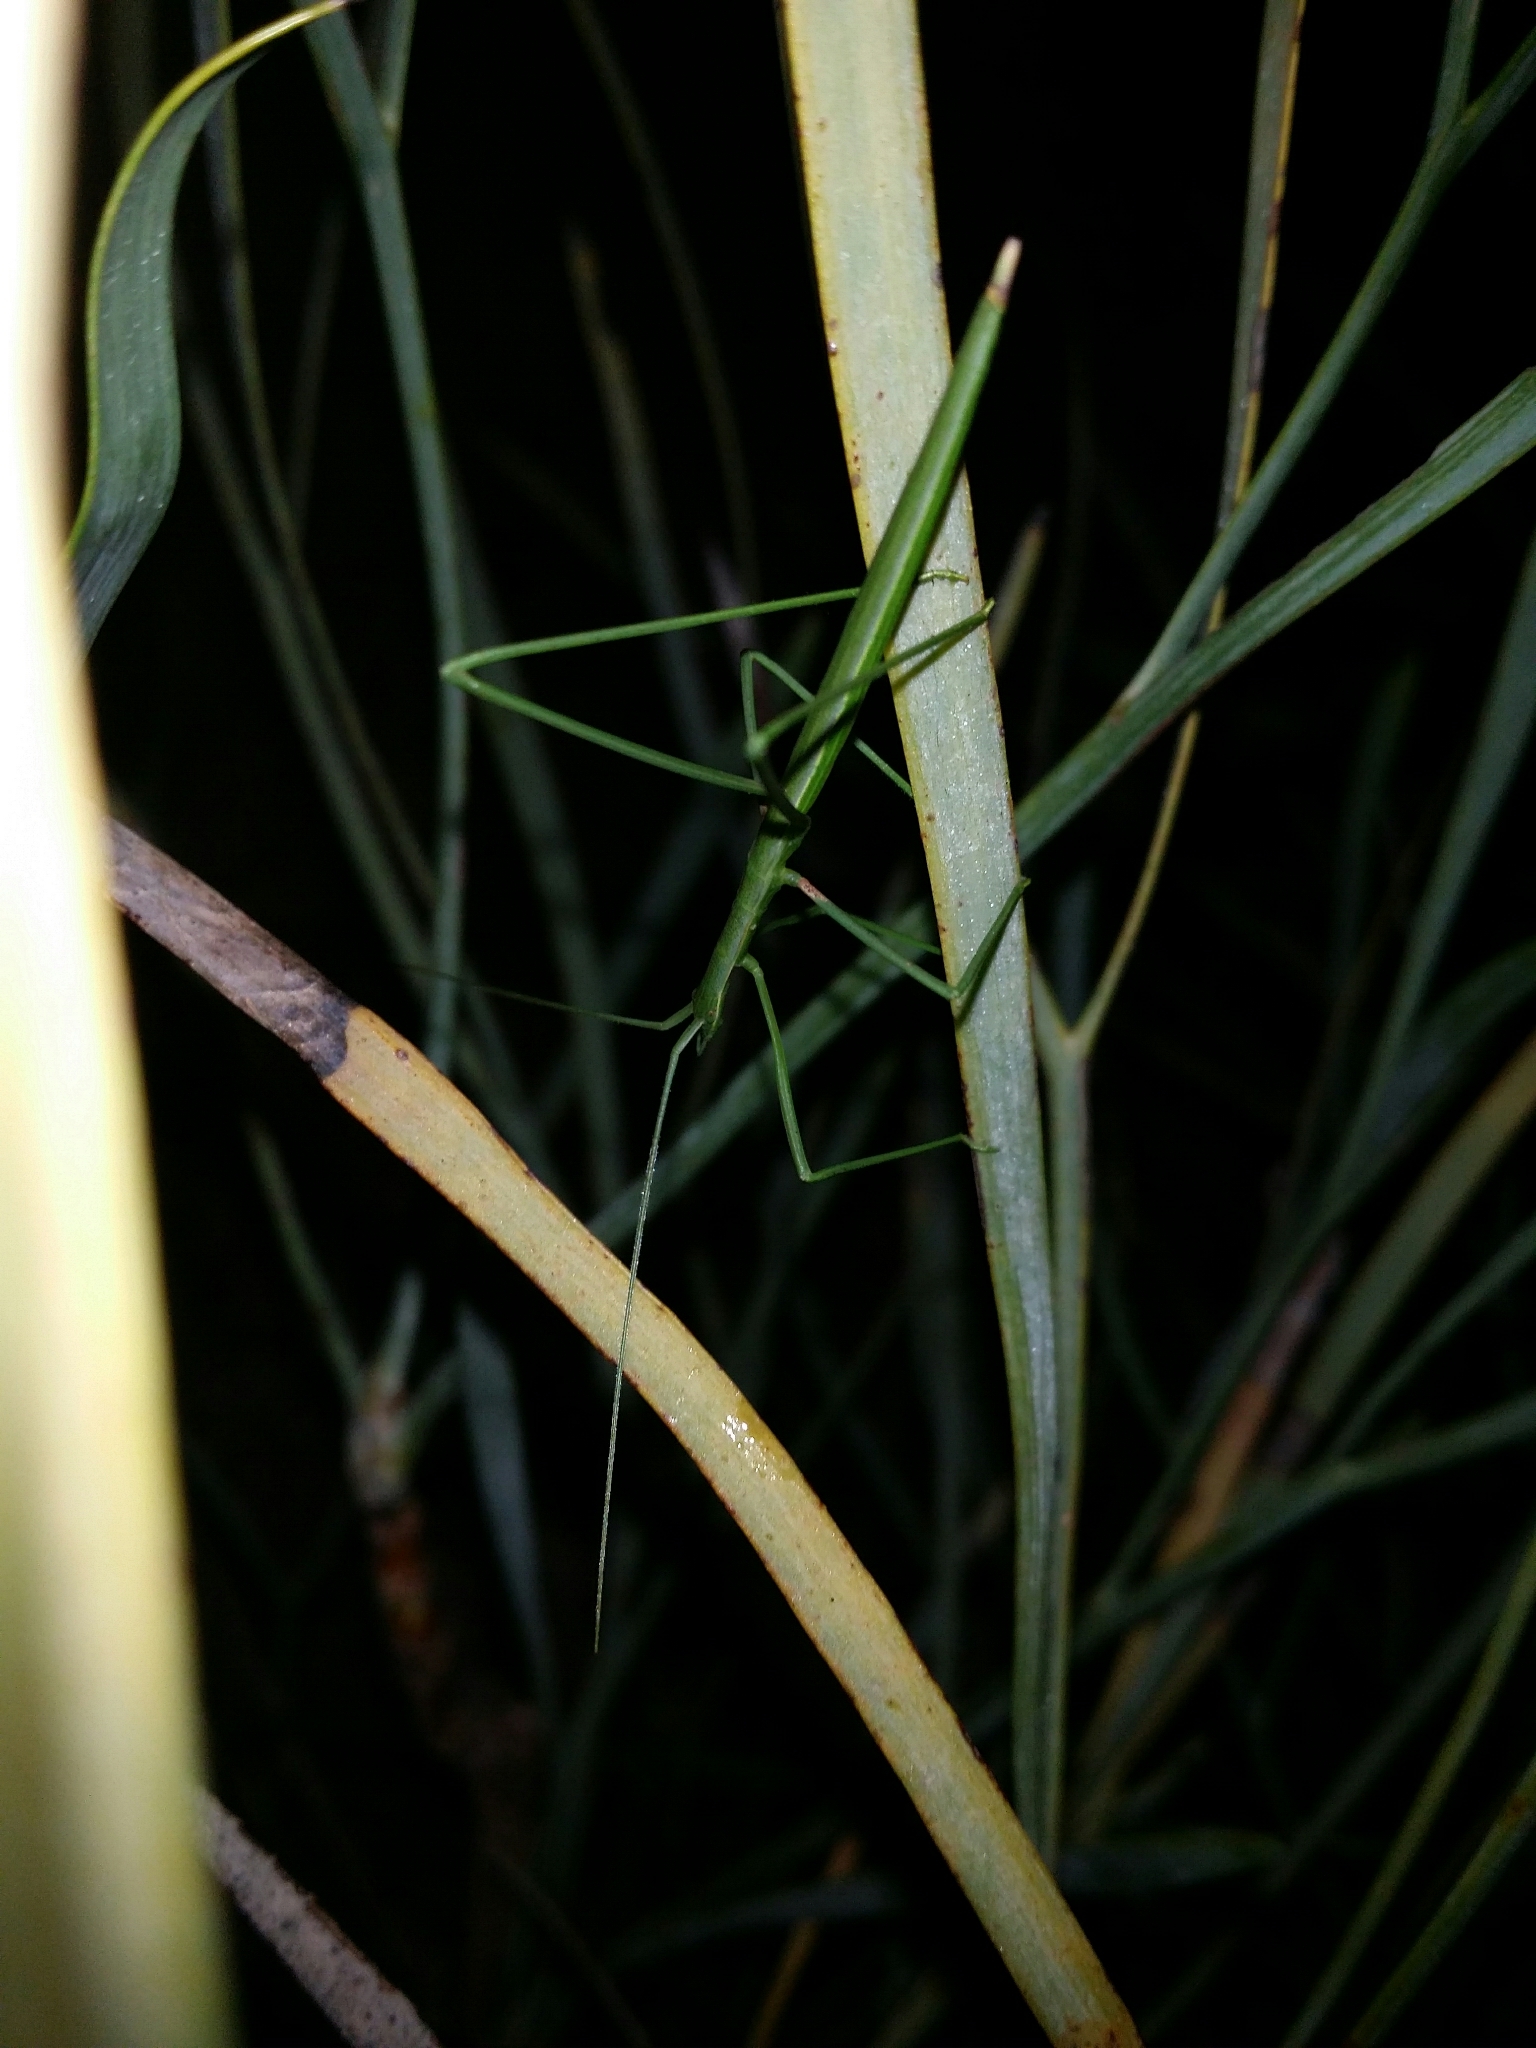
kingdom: Animalia
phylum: Arthropoda
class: Insecta
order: Orthoptera
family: Tettigoniidae
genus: Phasmodes
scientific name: Phasmodes ranatriformis
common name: King's park stick katydid
